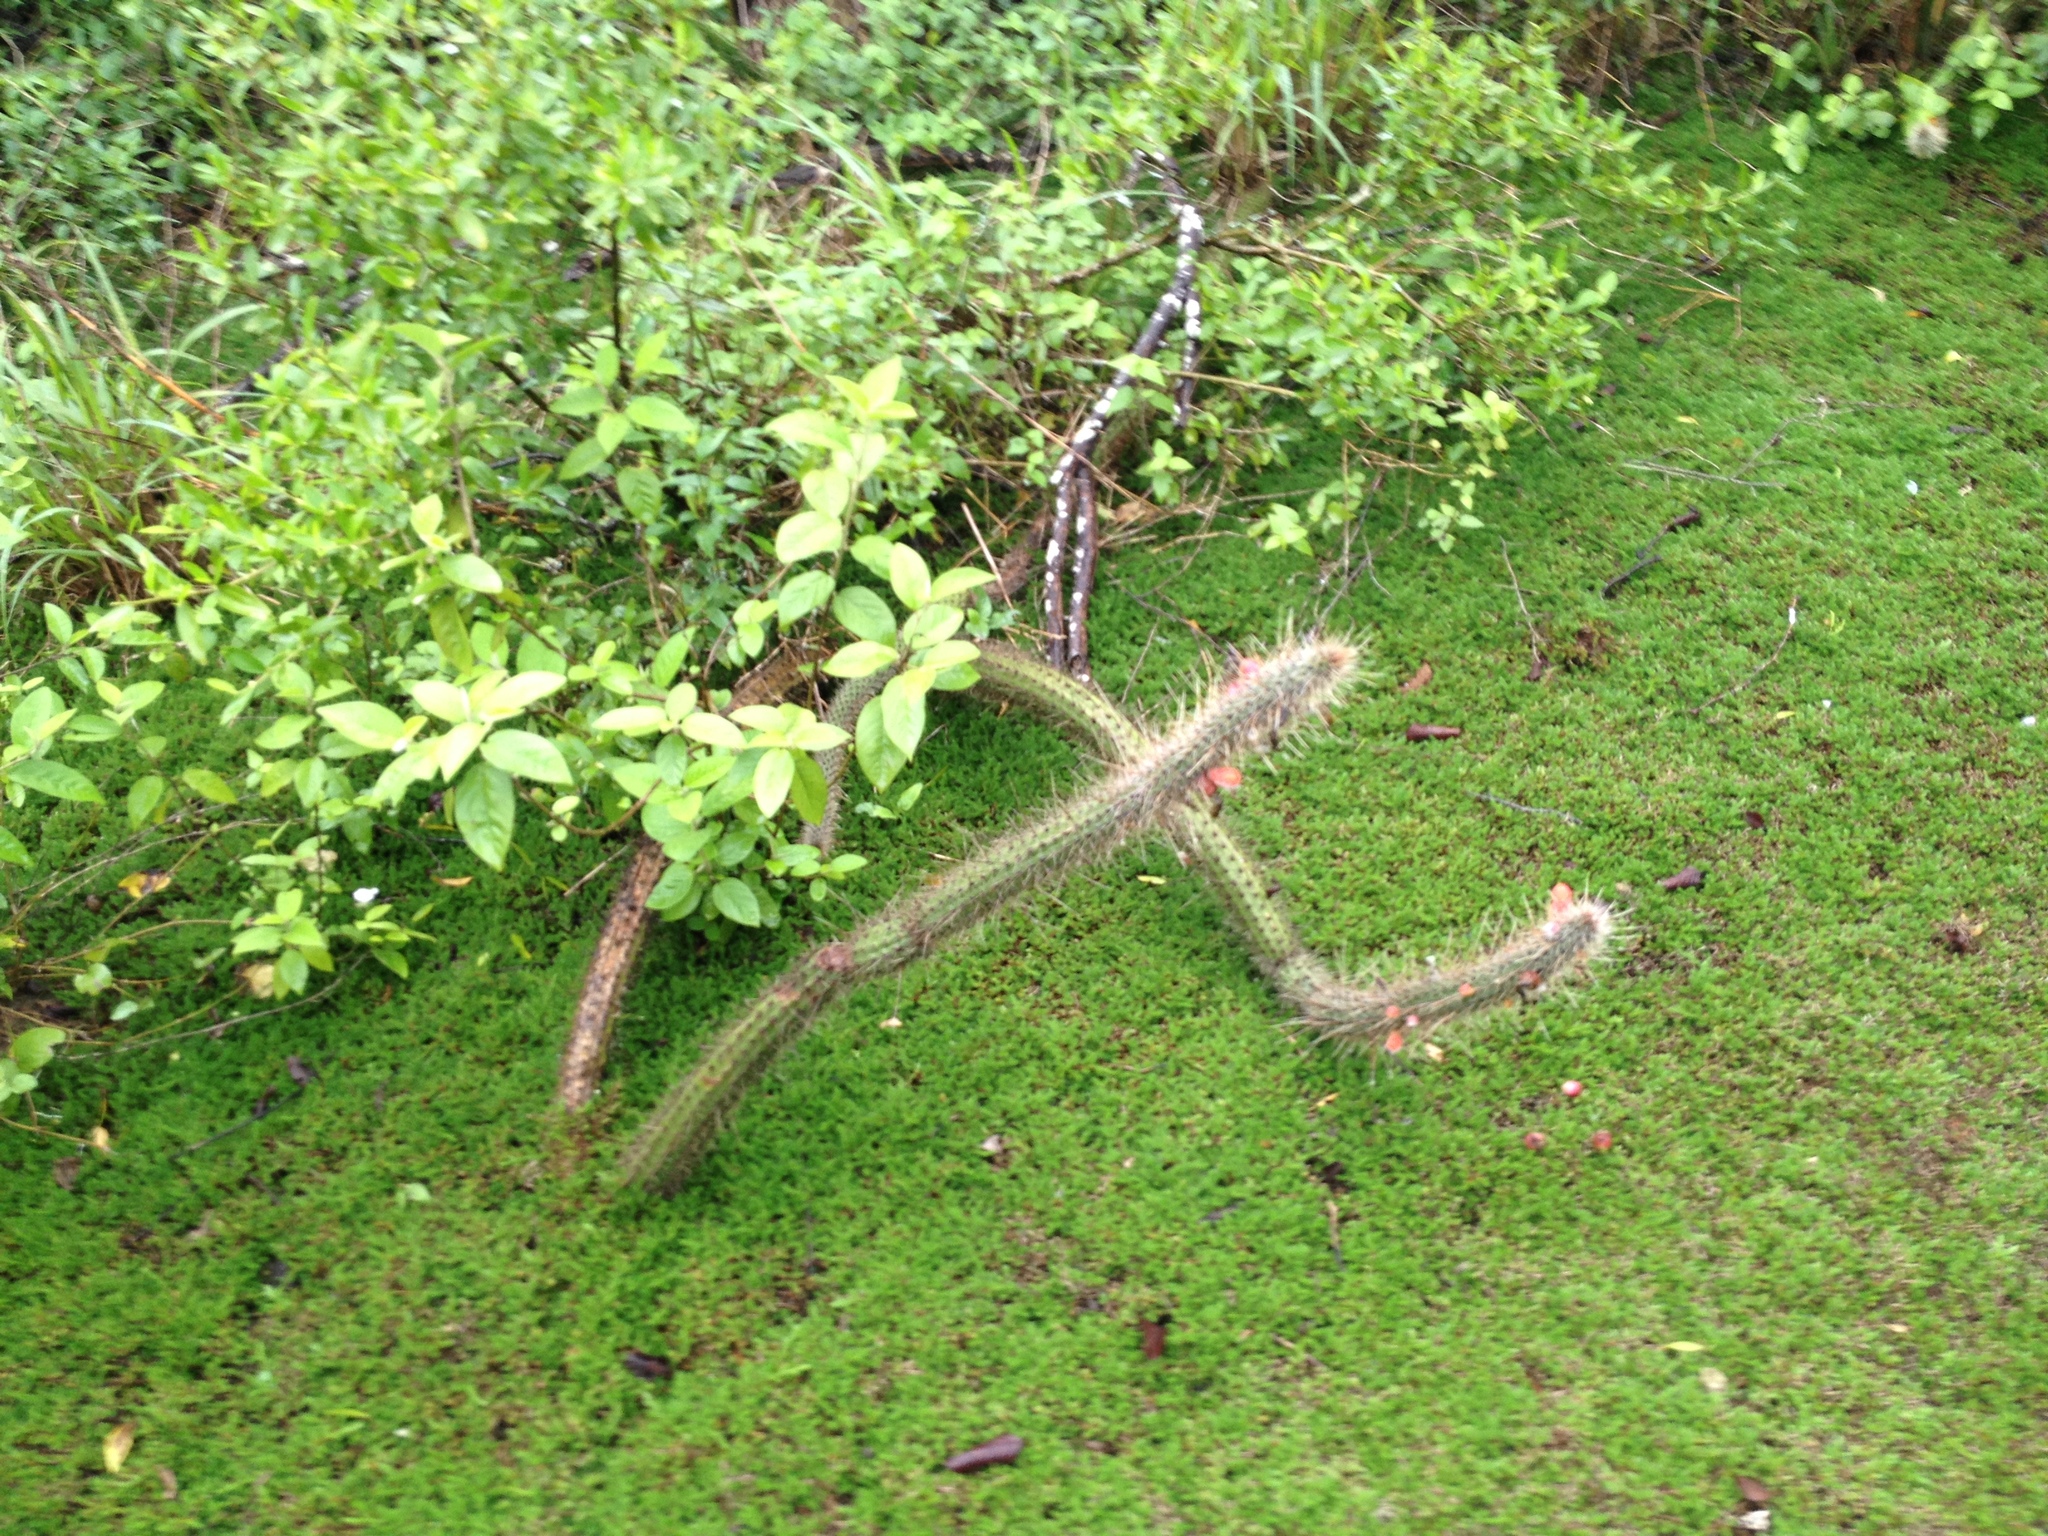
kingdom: Plantae
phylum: Tracheophyta
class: Magnoliopsida
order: Caryophyllales
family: Cactaceae
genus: Cleistocactus
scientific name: Cleistocactus baumannii
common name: Scarlet-bugler
